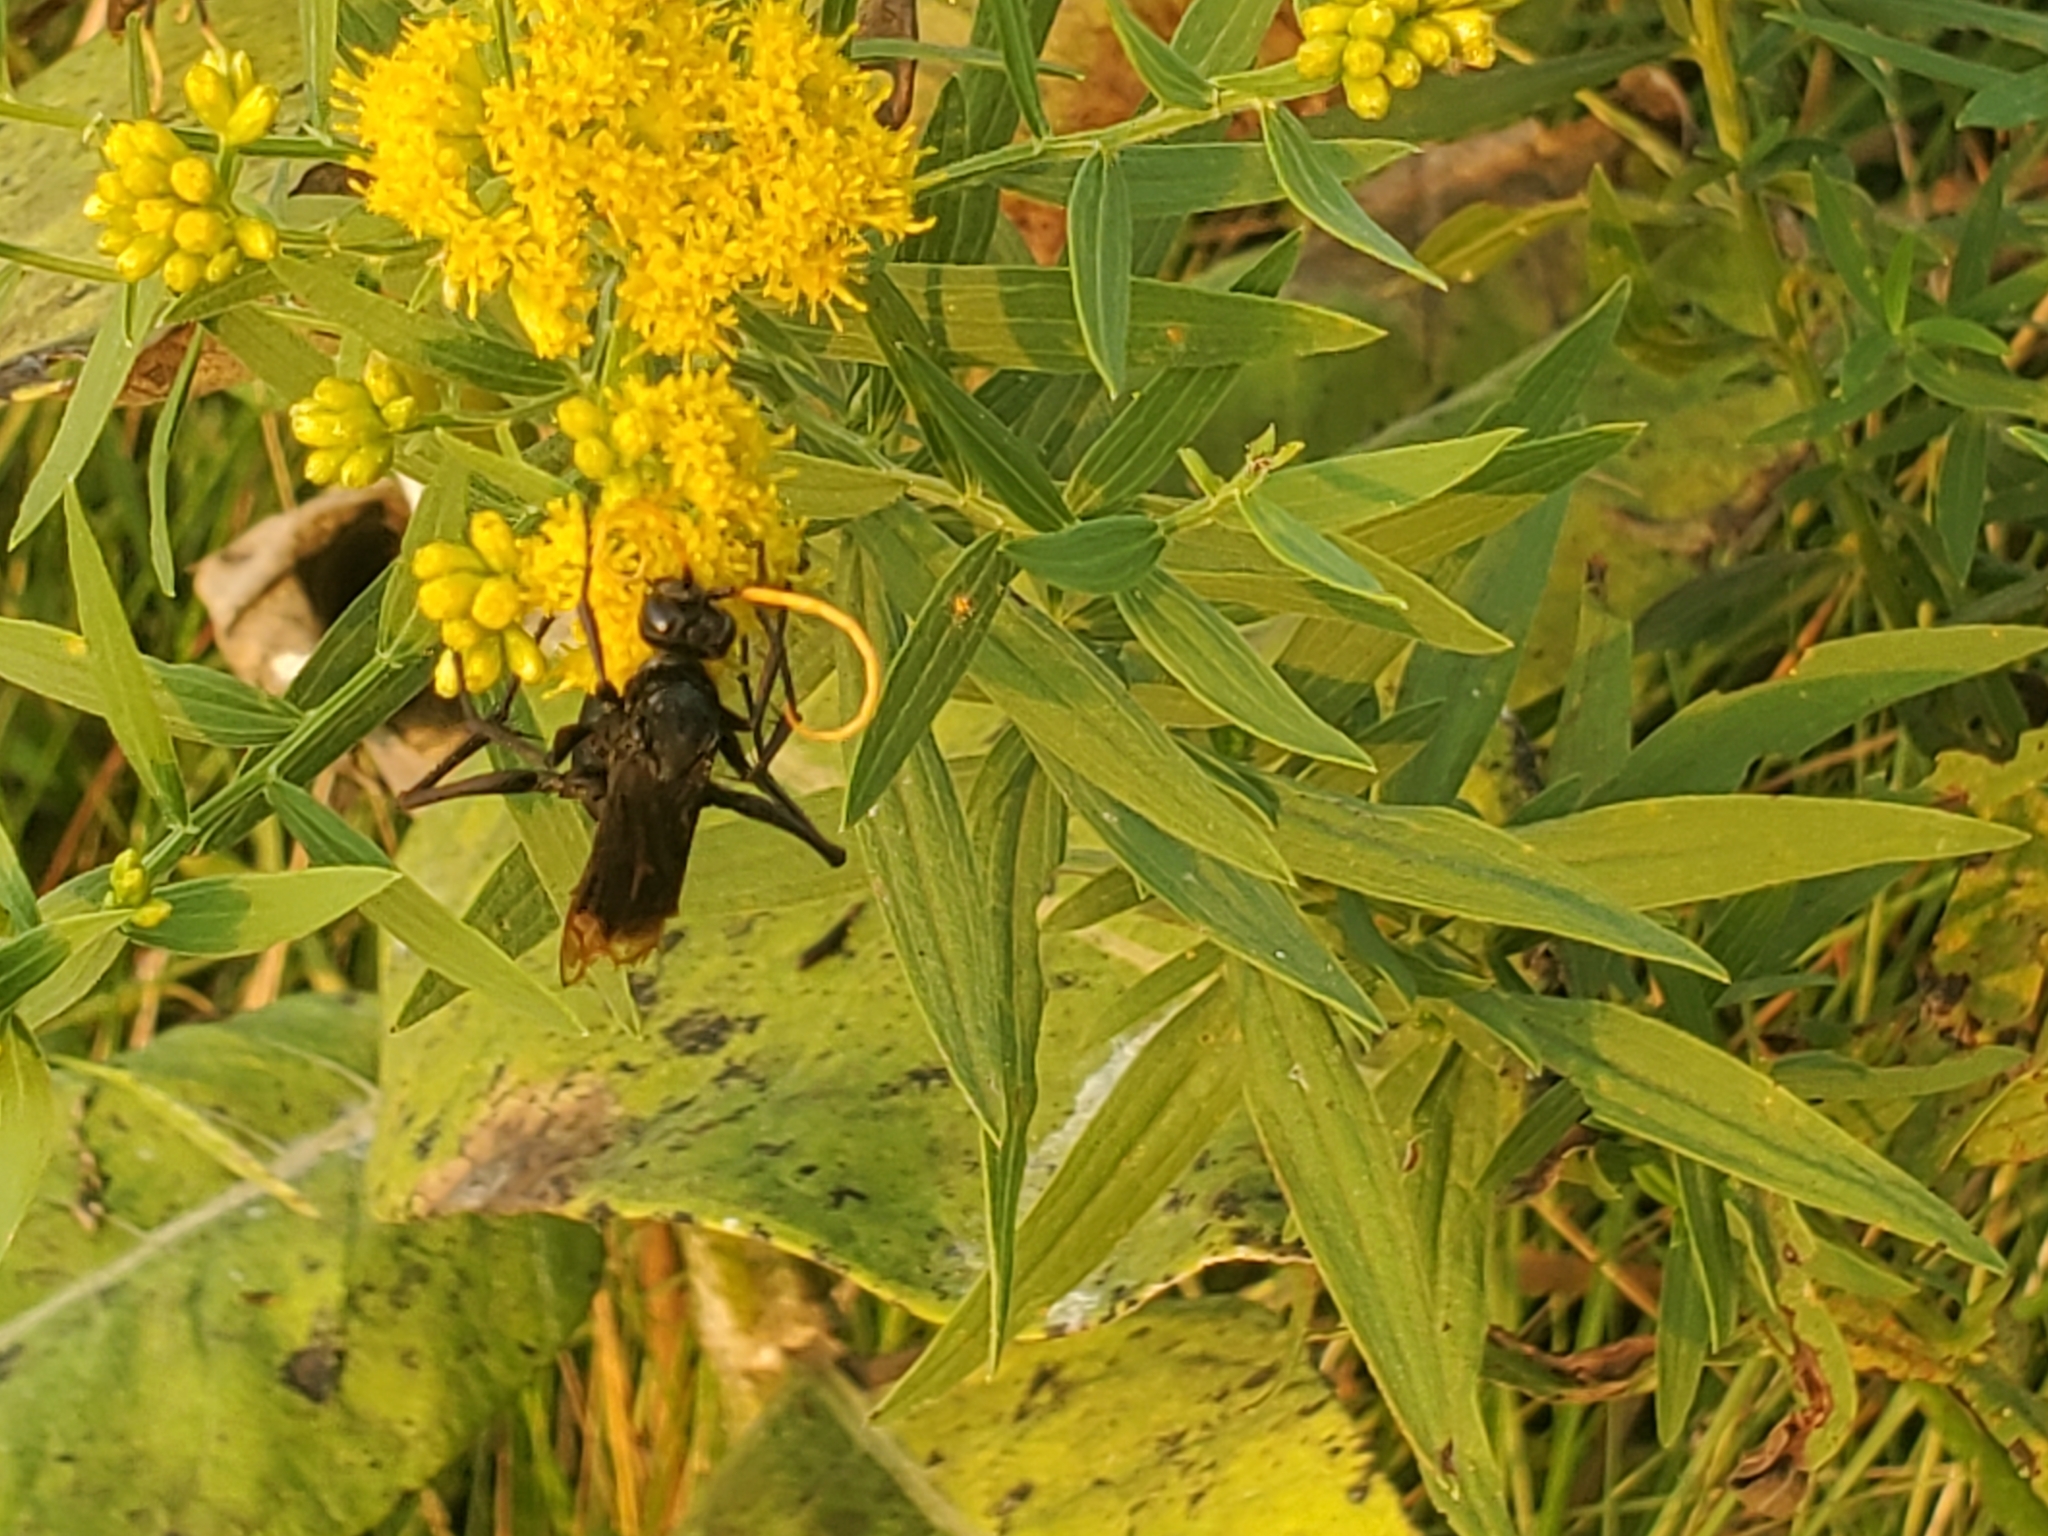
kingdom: Animalia
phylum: Arthropoda
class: Insecta
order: Hymenoptera
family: Pompilidae
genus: Entypus
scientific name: Entypus unifasciatus
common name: Eastern tawny-horned spider wasp
